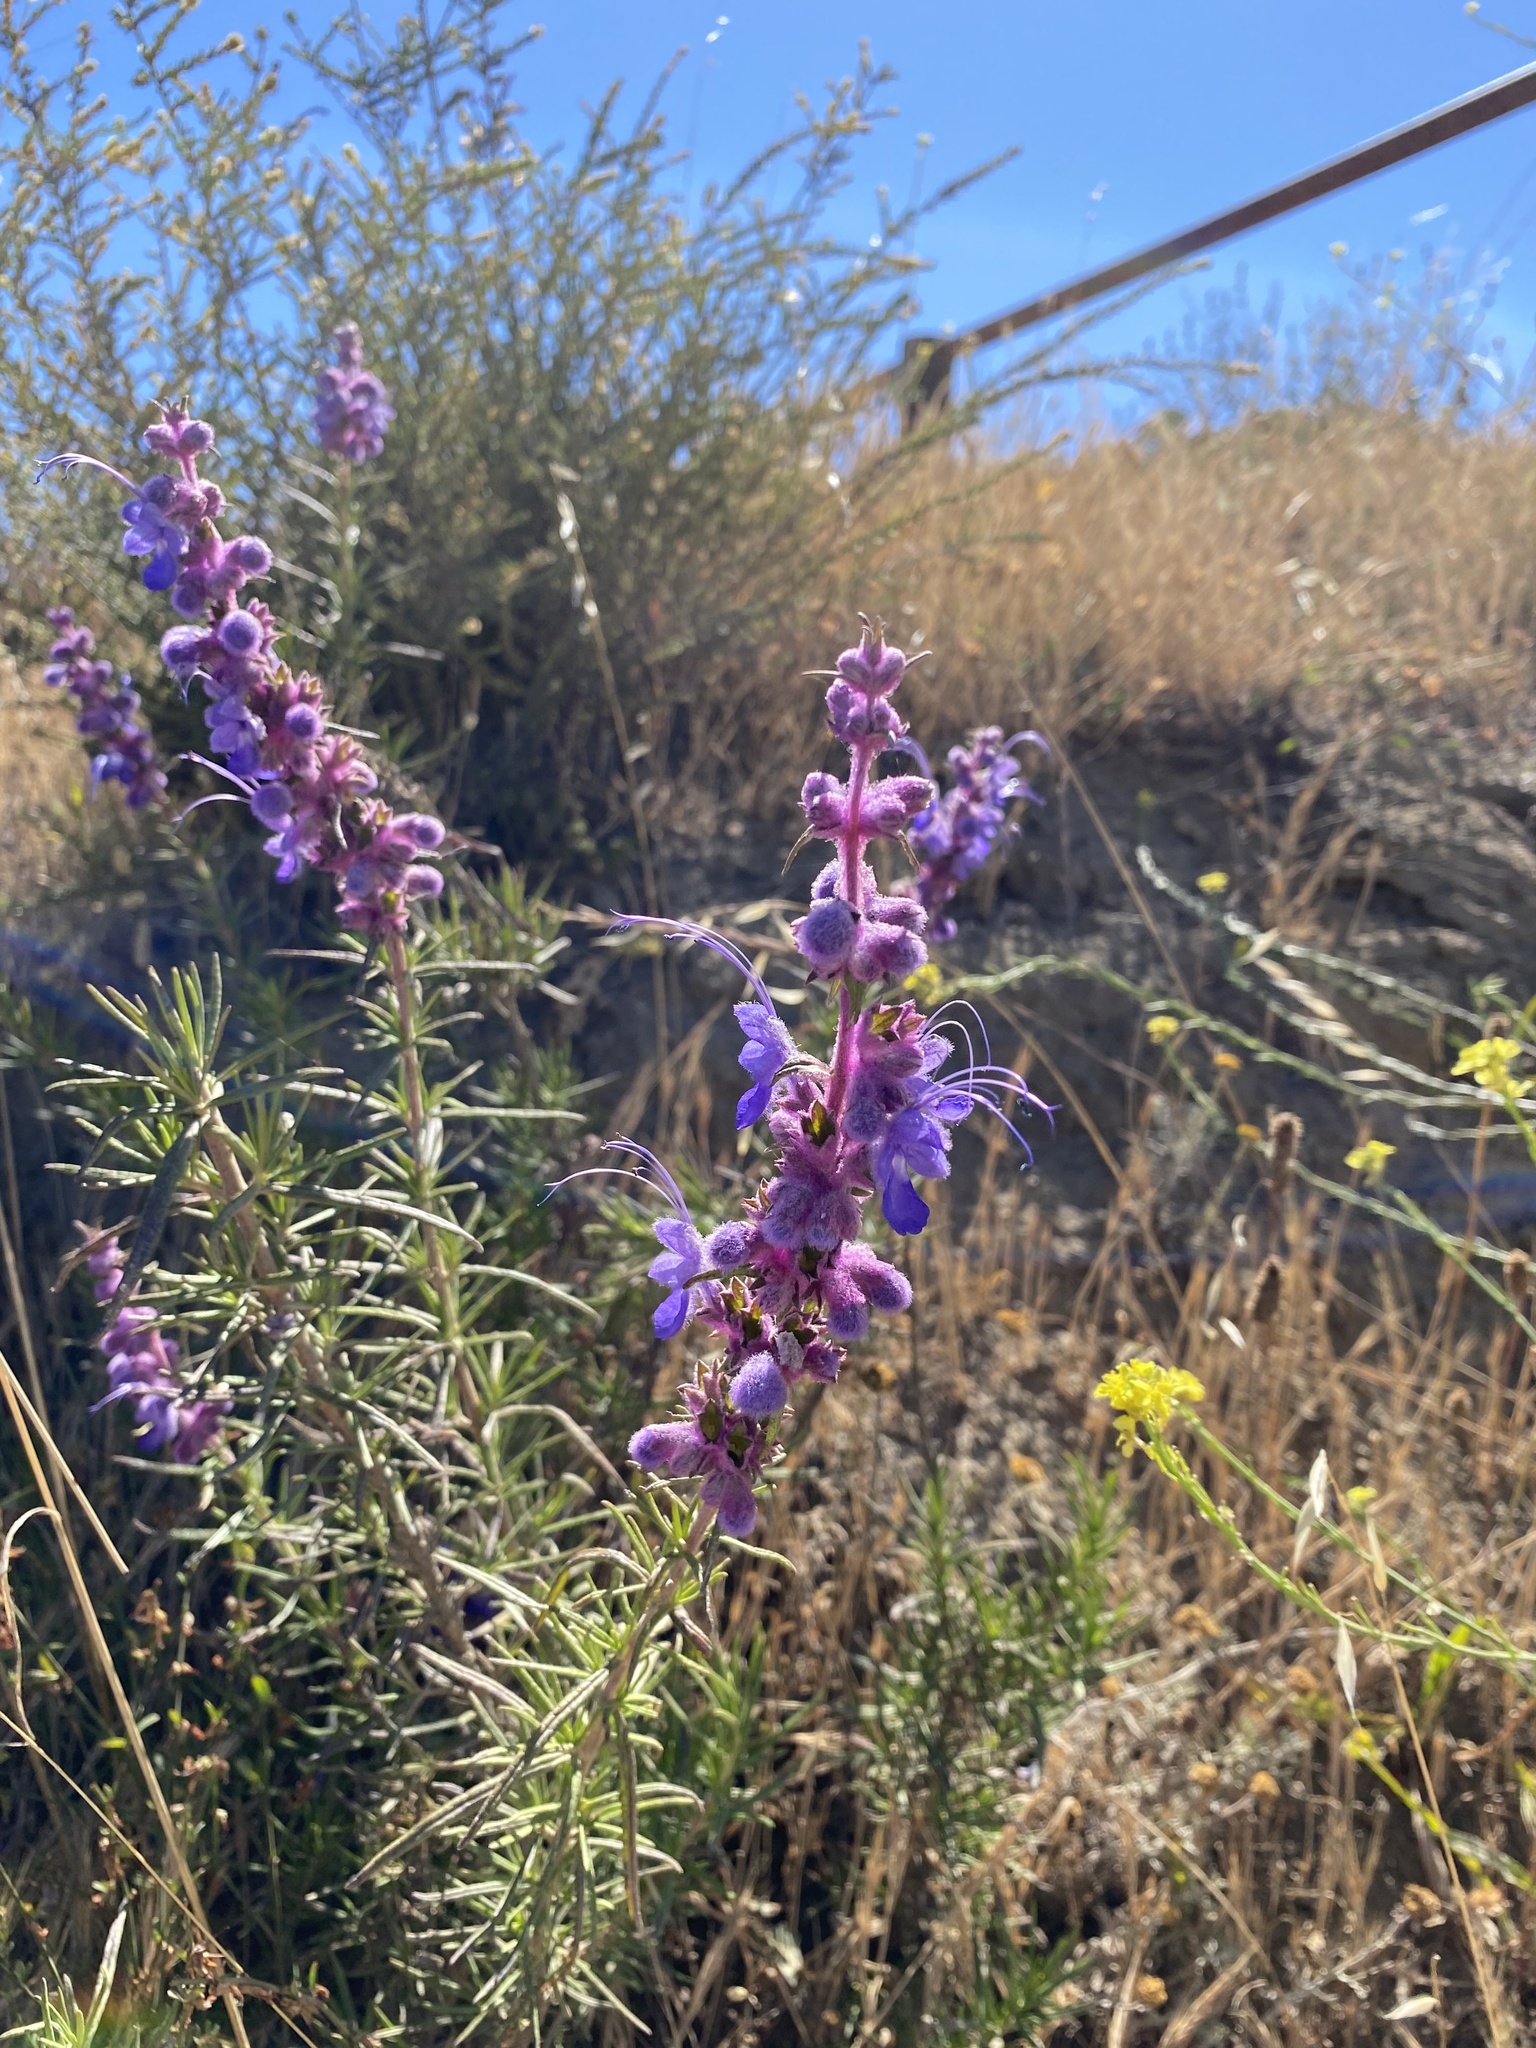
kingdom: Plantae
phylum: Tracheophyta
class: Magnoliopsida
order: Lamiales
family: Lamiaceae
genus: Trichostema
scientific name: Trichostema lanatum
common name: Woolly bluecurls
